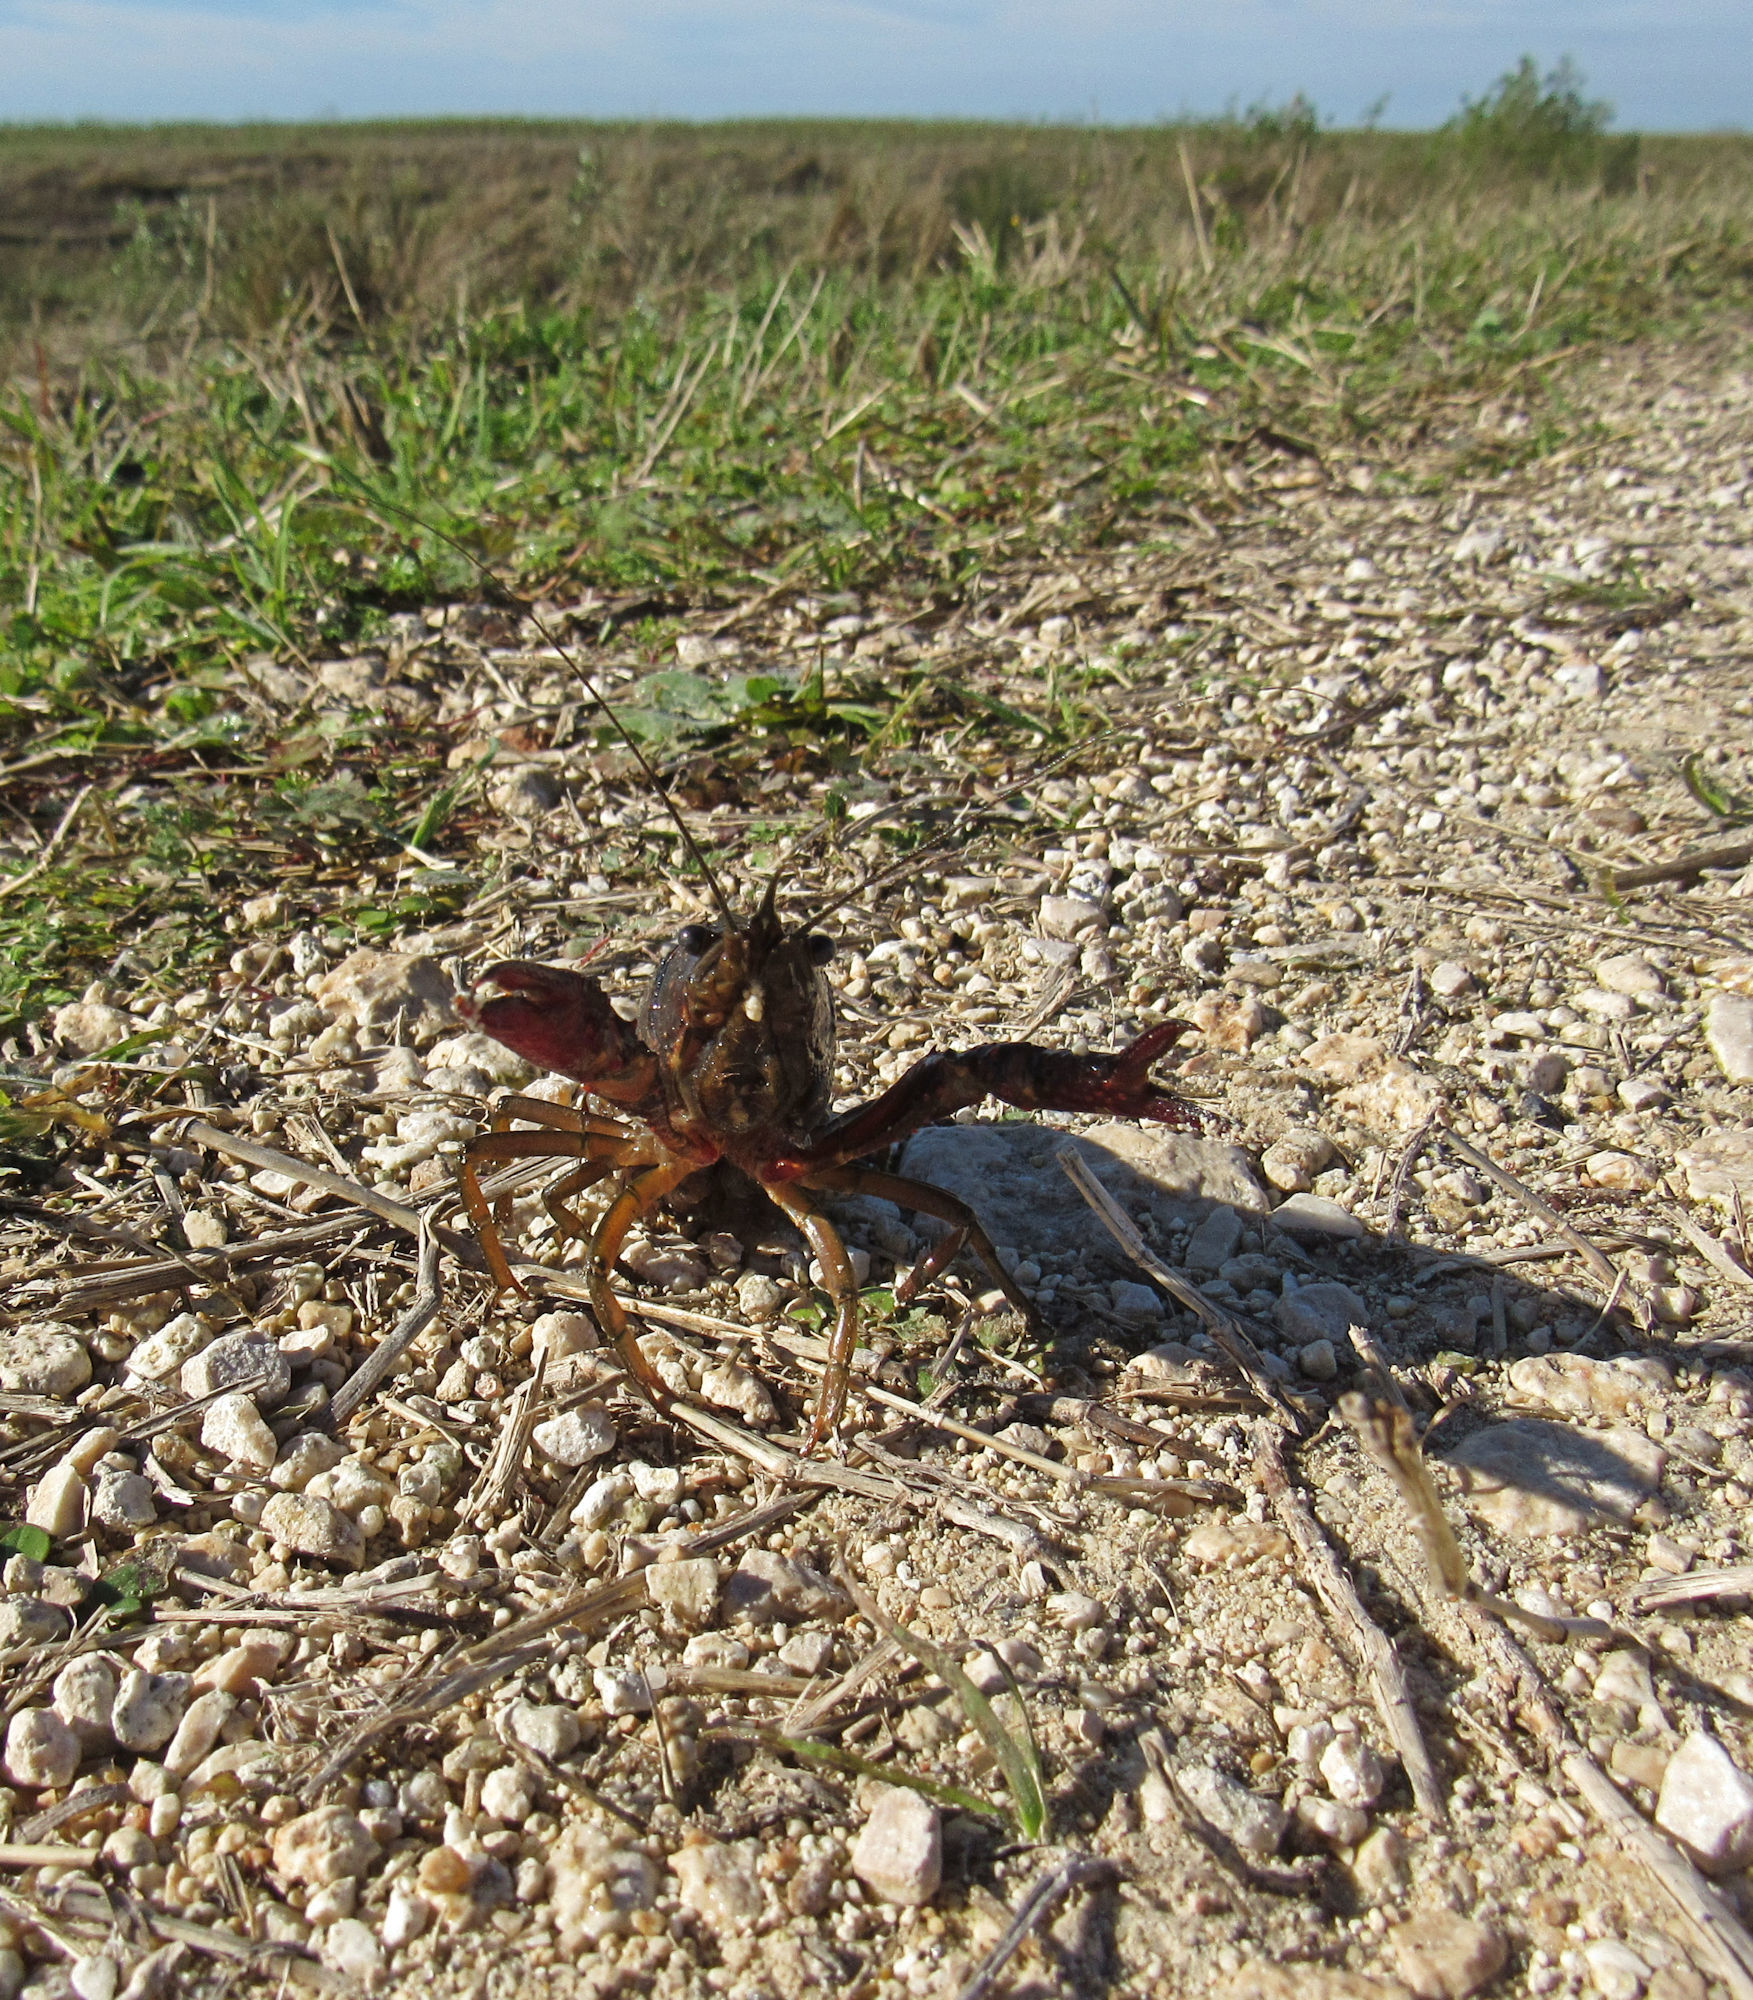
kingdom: Animalia
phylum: Arthropoda
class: Malacostraca
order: Decapoda
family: Cambaridae
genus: Procambarus
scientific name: Procambarus clarkii
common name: Red swamp crayfish
